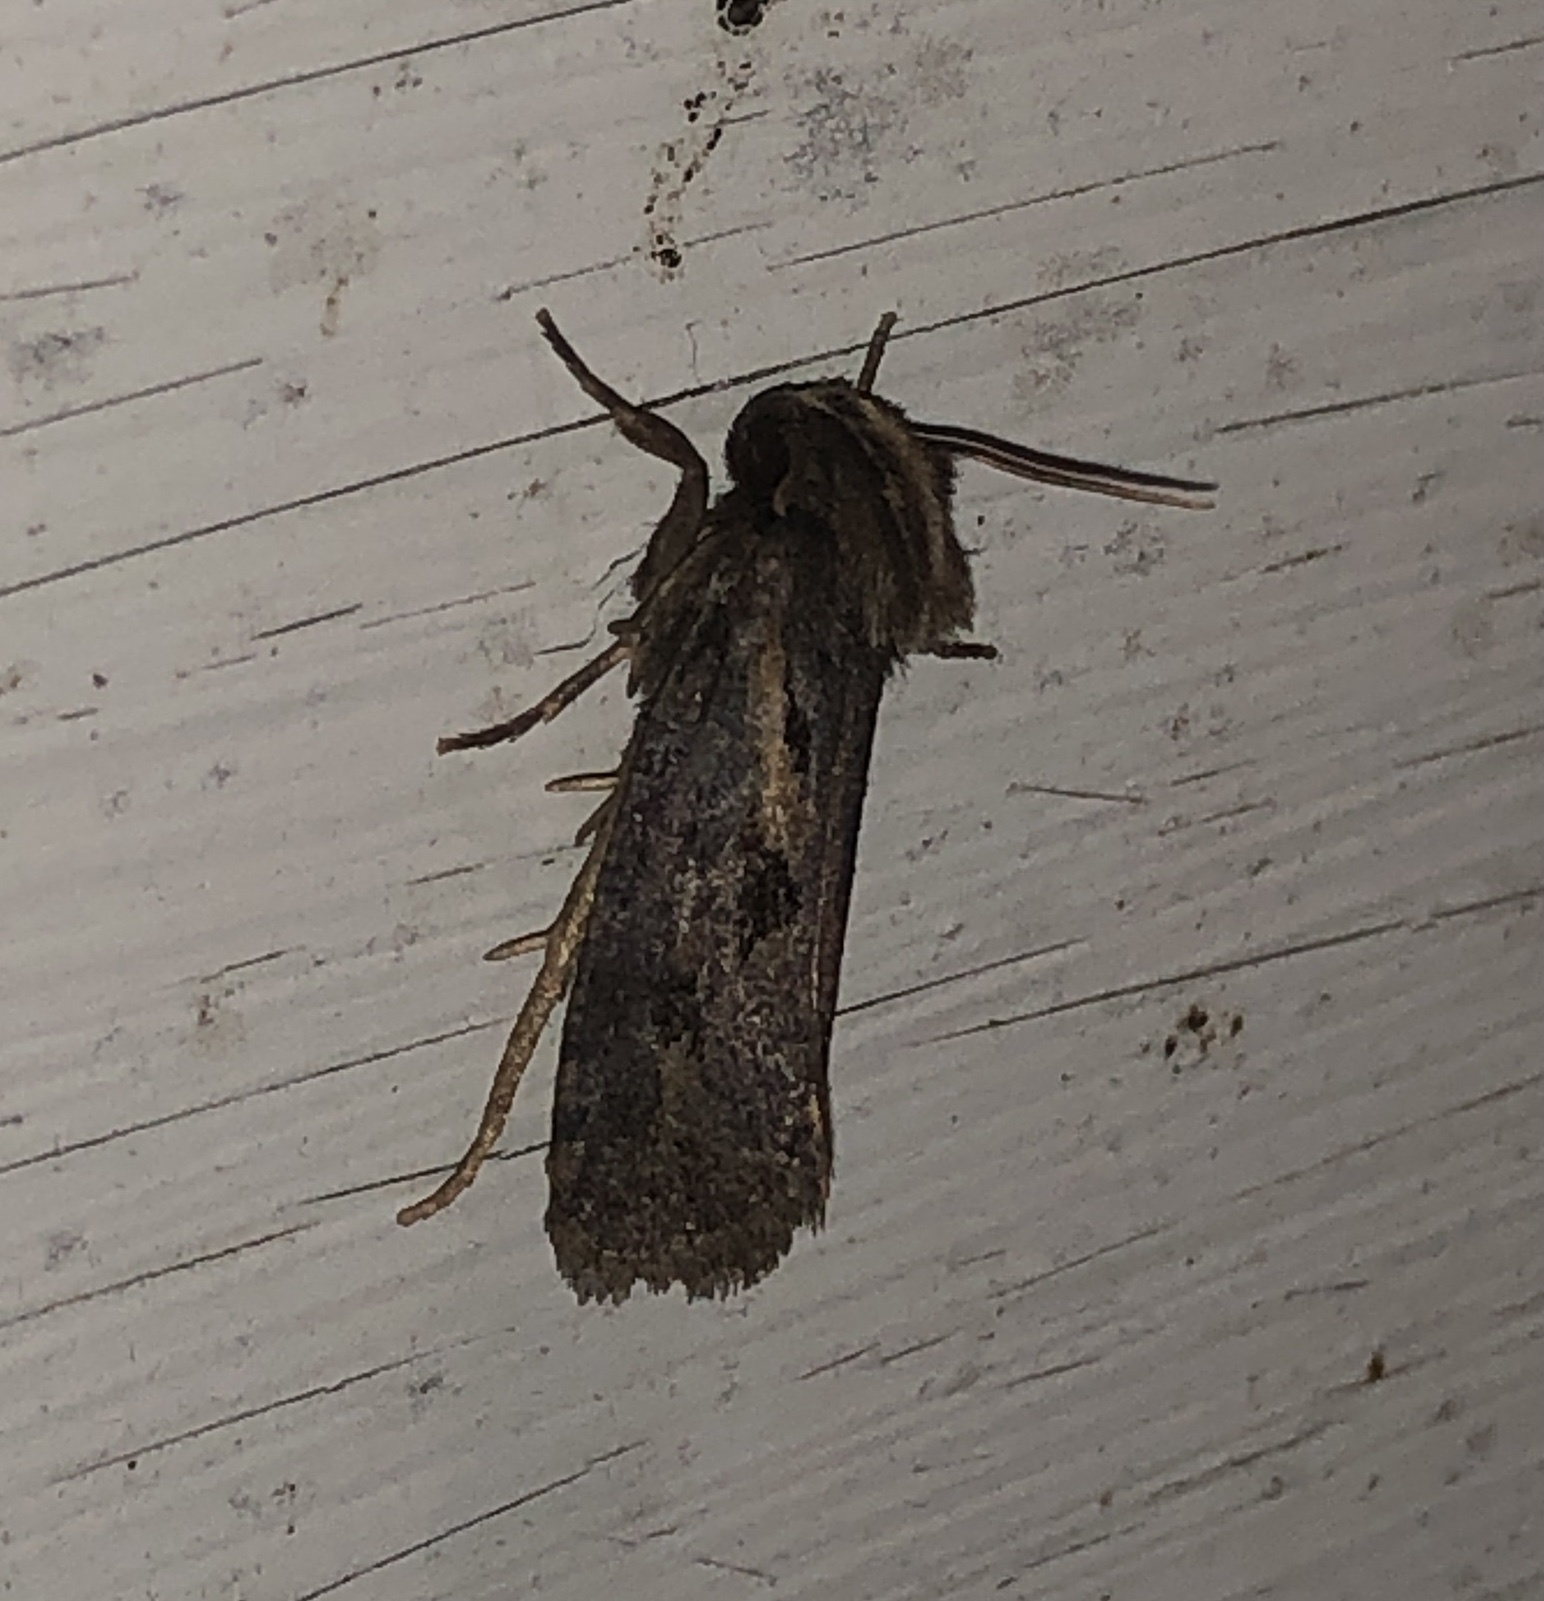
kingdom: Animalia
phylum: Arthropoda
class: Insecta
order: Lepidoptera
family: Tineidae
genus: Acrolophus
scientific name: Acrolophus popeanella
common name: Clemens' grass tubeworm moth
